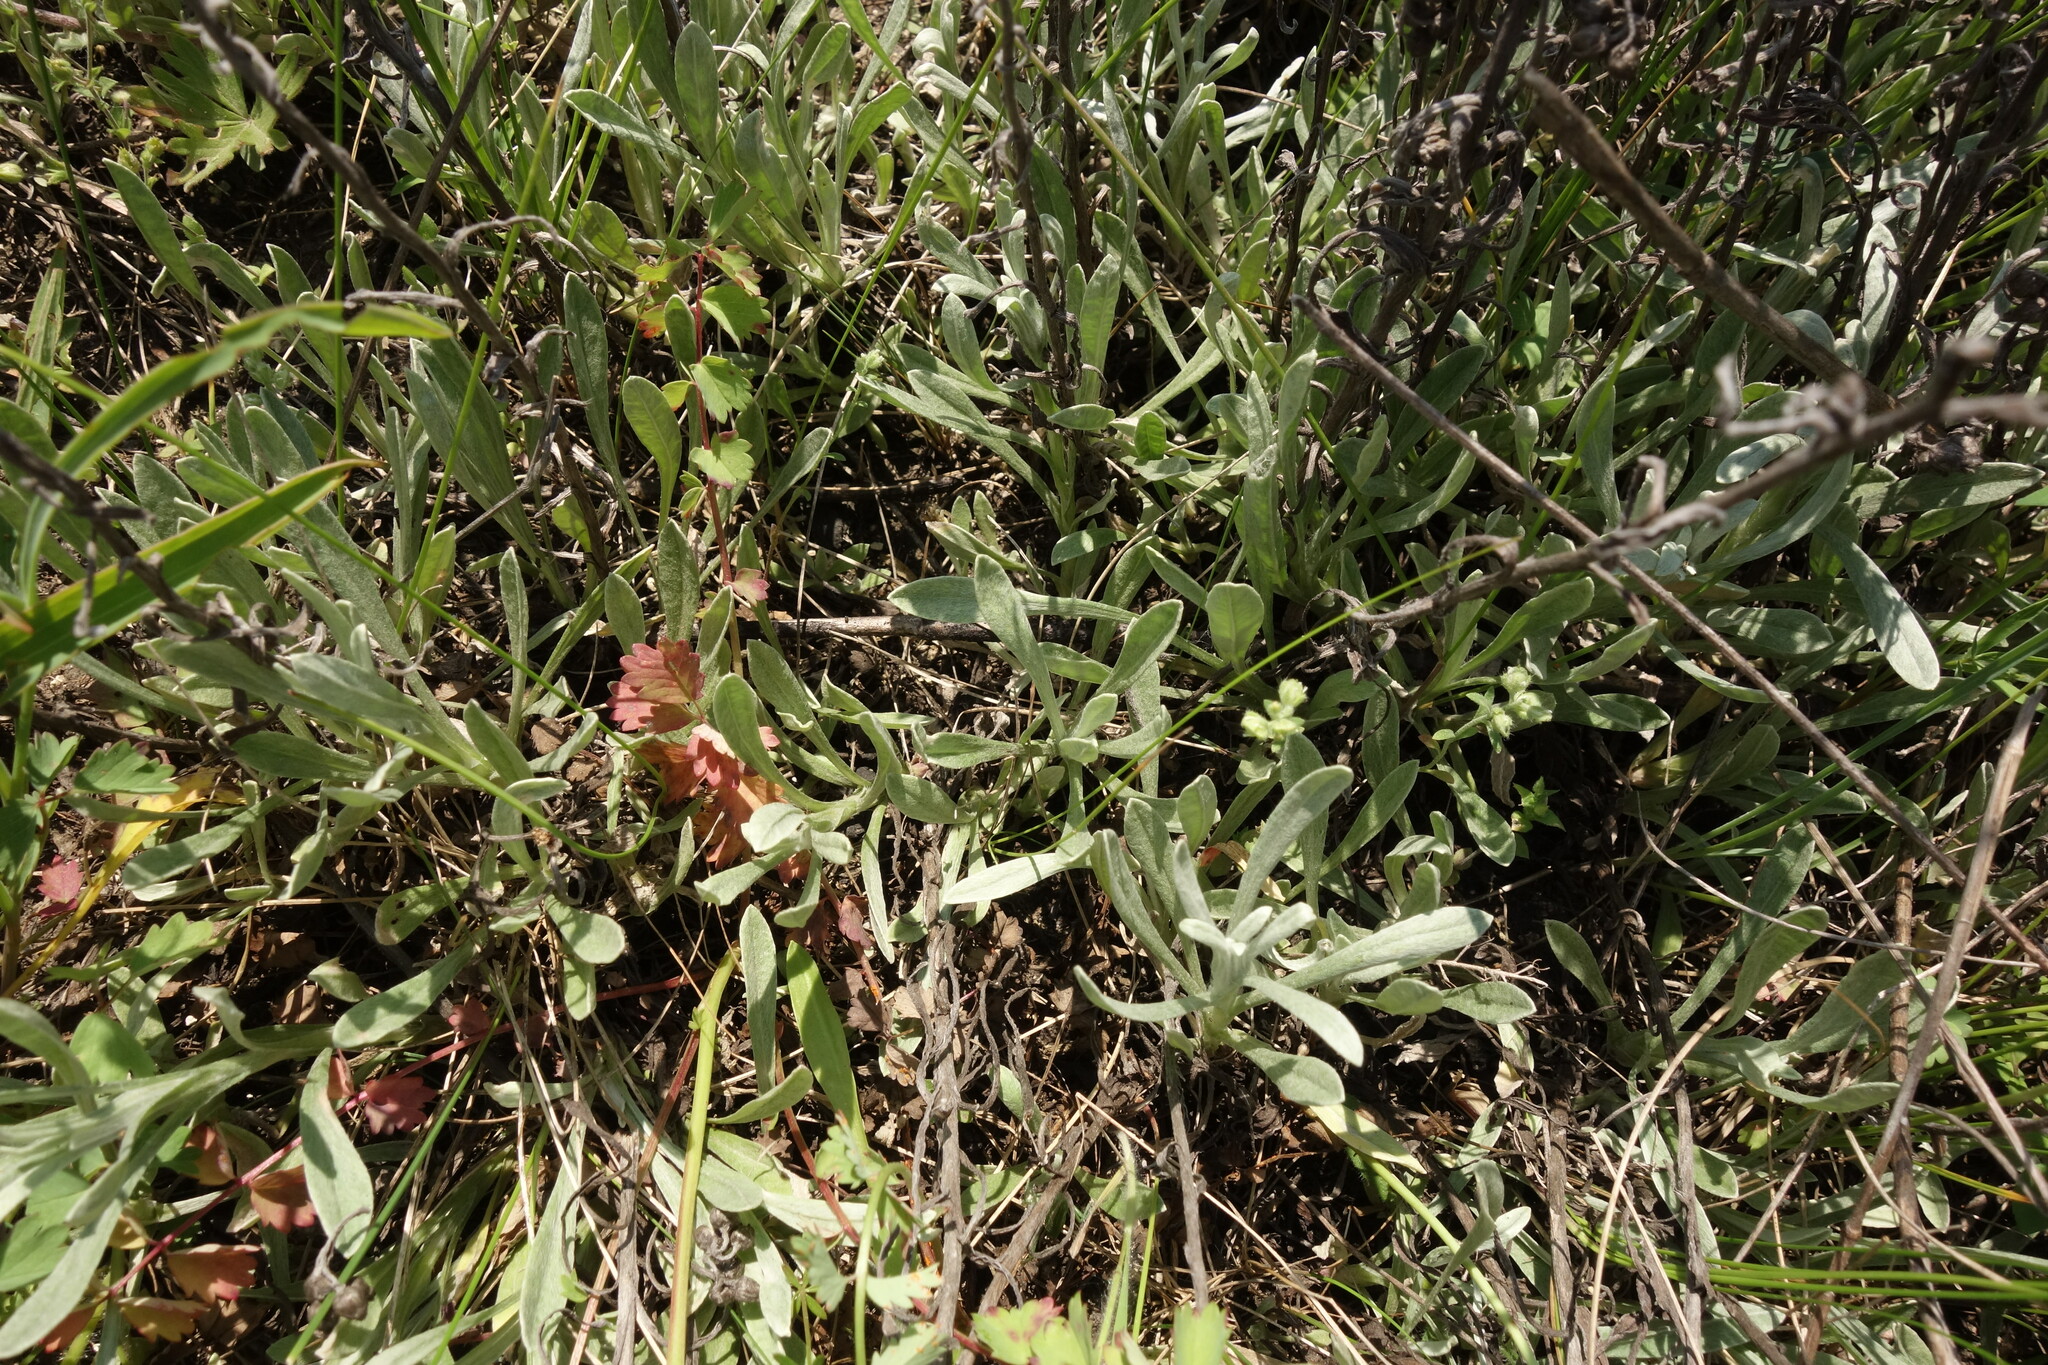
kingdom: Plantae
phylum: Tracheophyta
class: Magnoliopsida
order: Asterales
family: Asteraceae
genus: Helichrysum
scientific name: Helichrysum arenarium
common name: Strawflower
